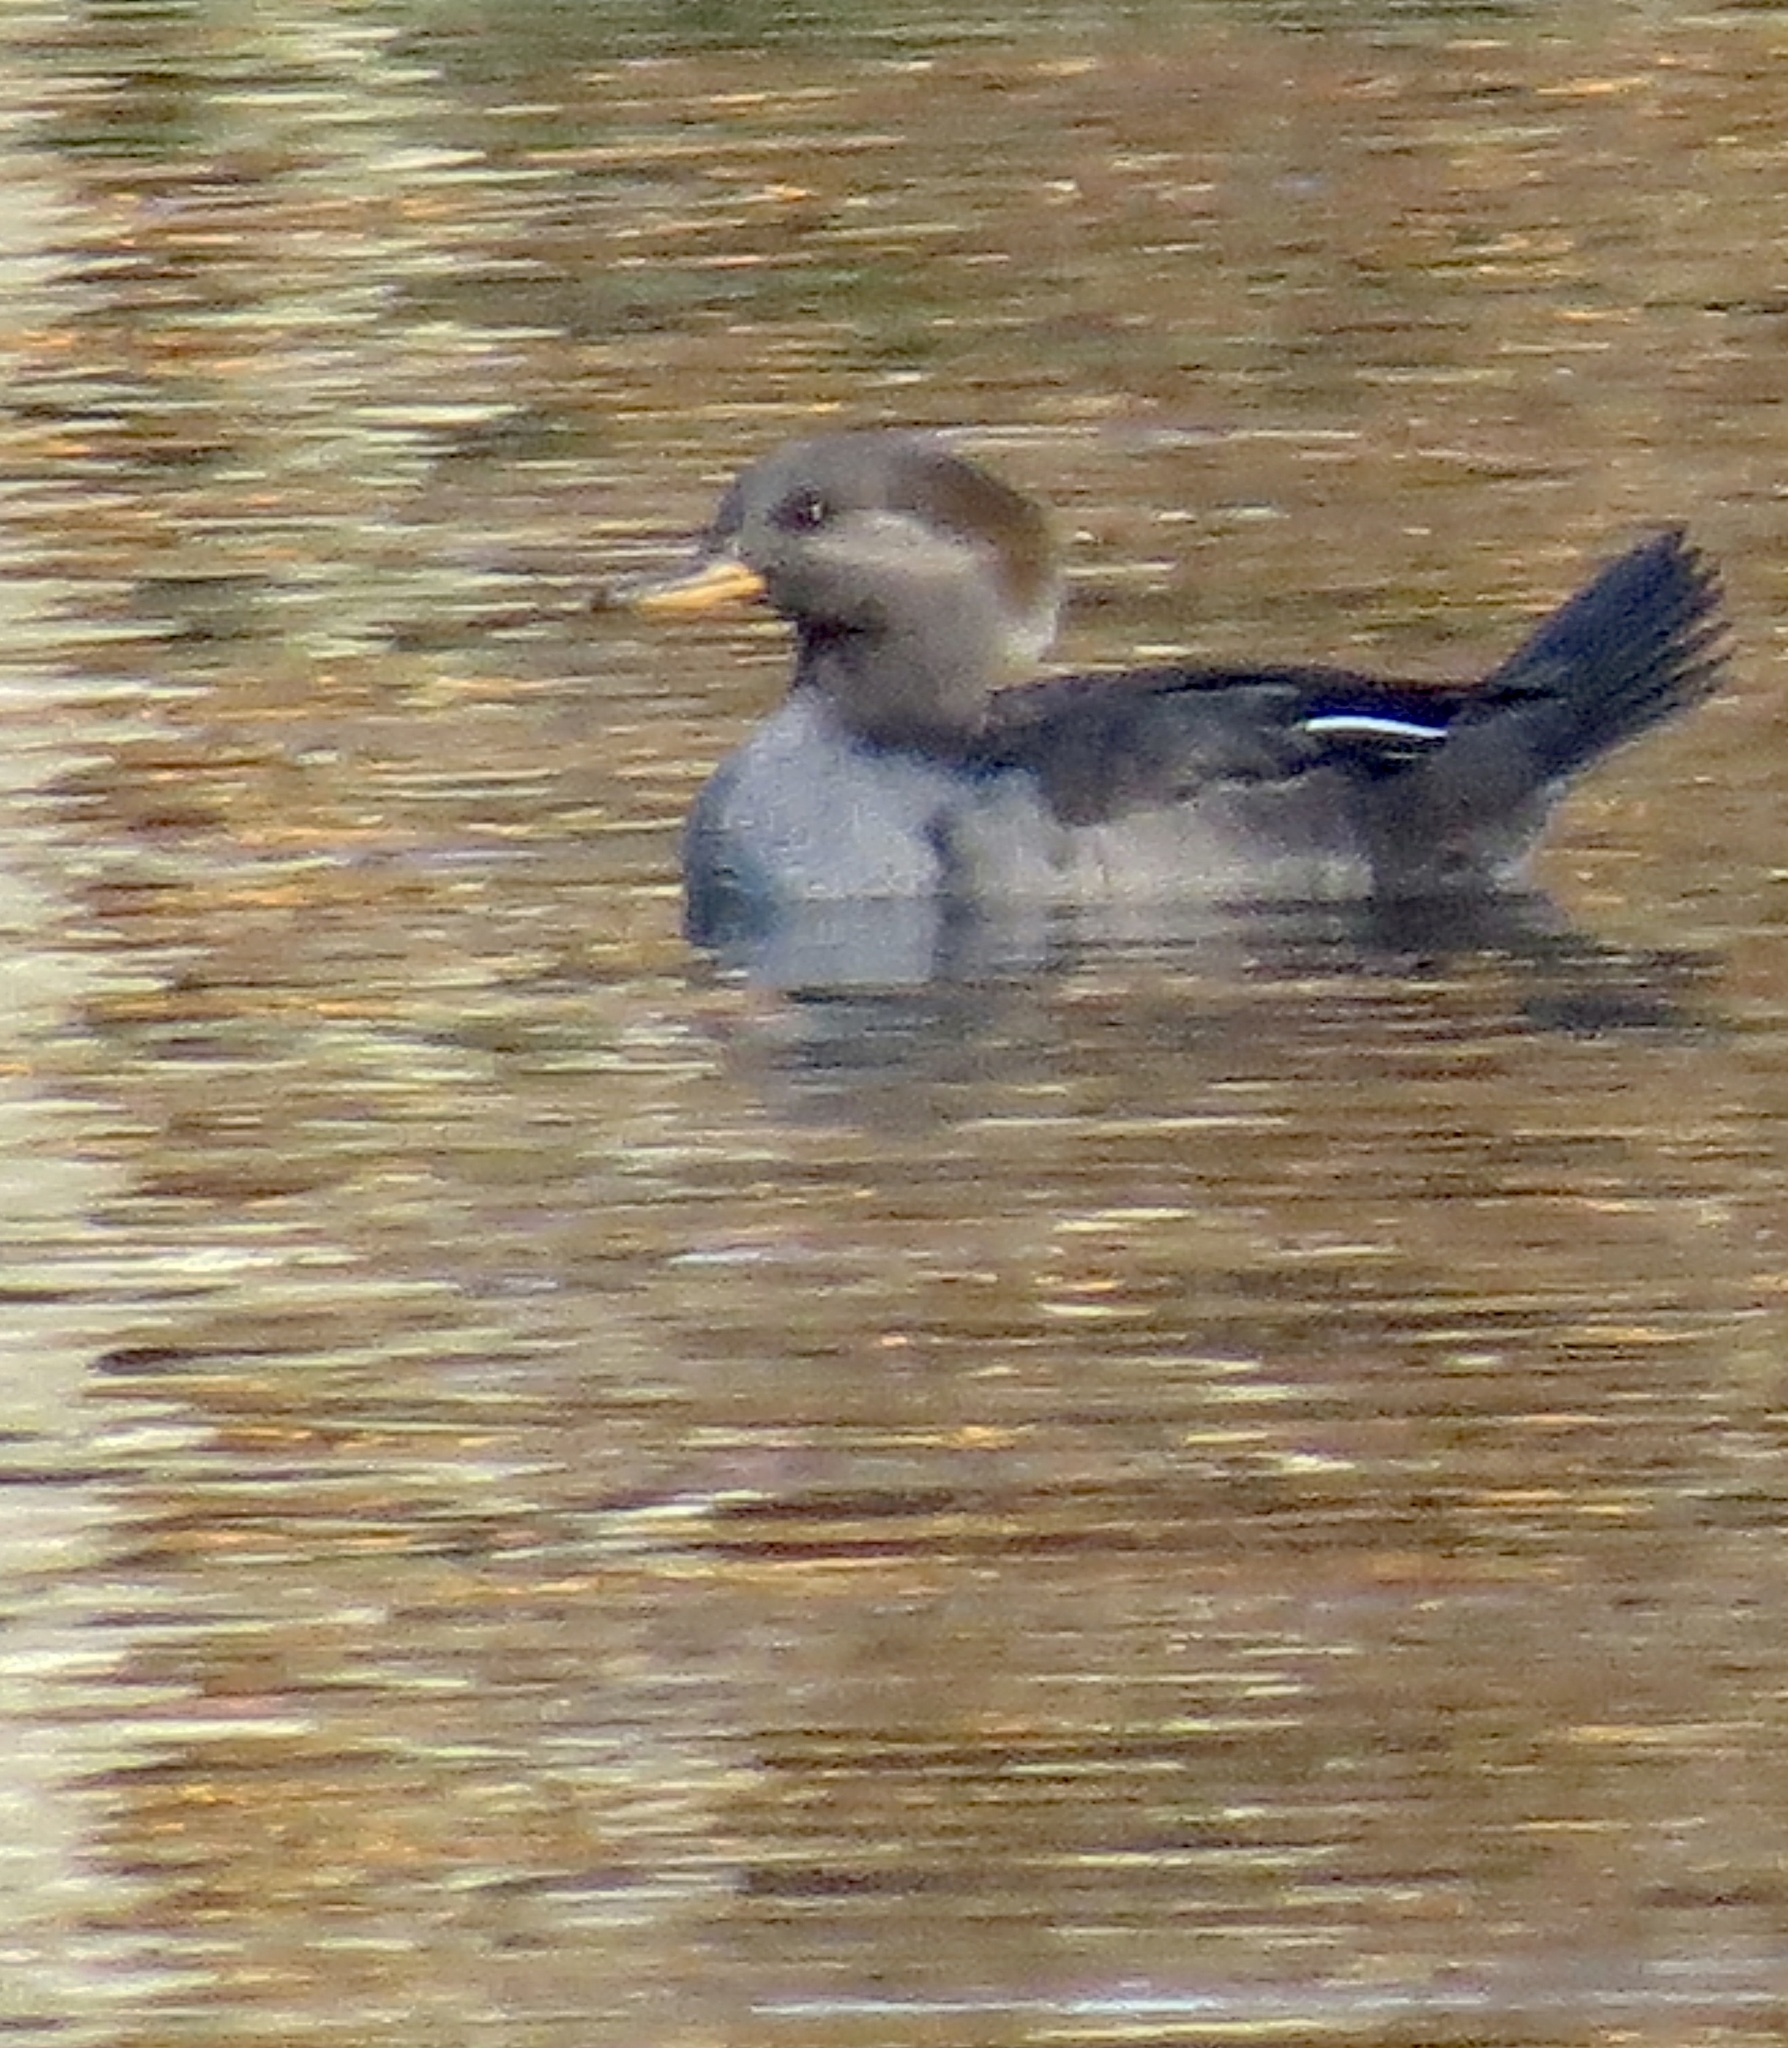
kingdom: Animalia
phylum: Chordata
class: Aves
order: Anseriformes
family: Anatidae
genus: Lophodytes
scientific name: Lophodytes cucullatus
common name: Hooded merganser
